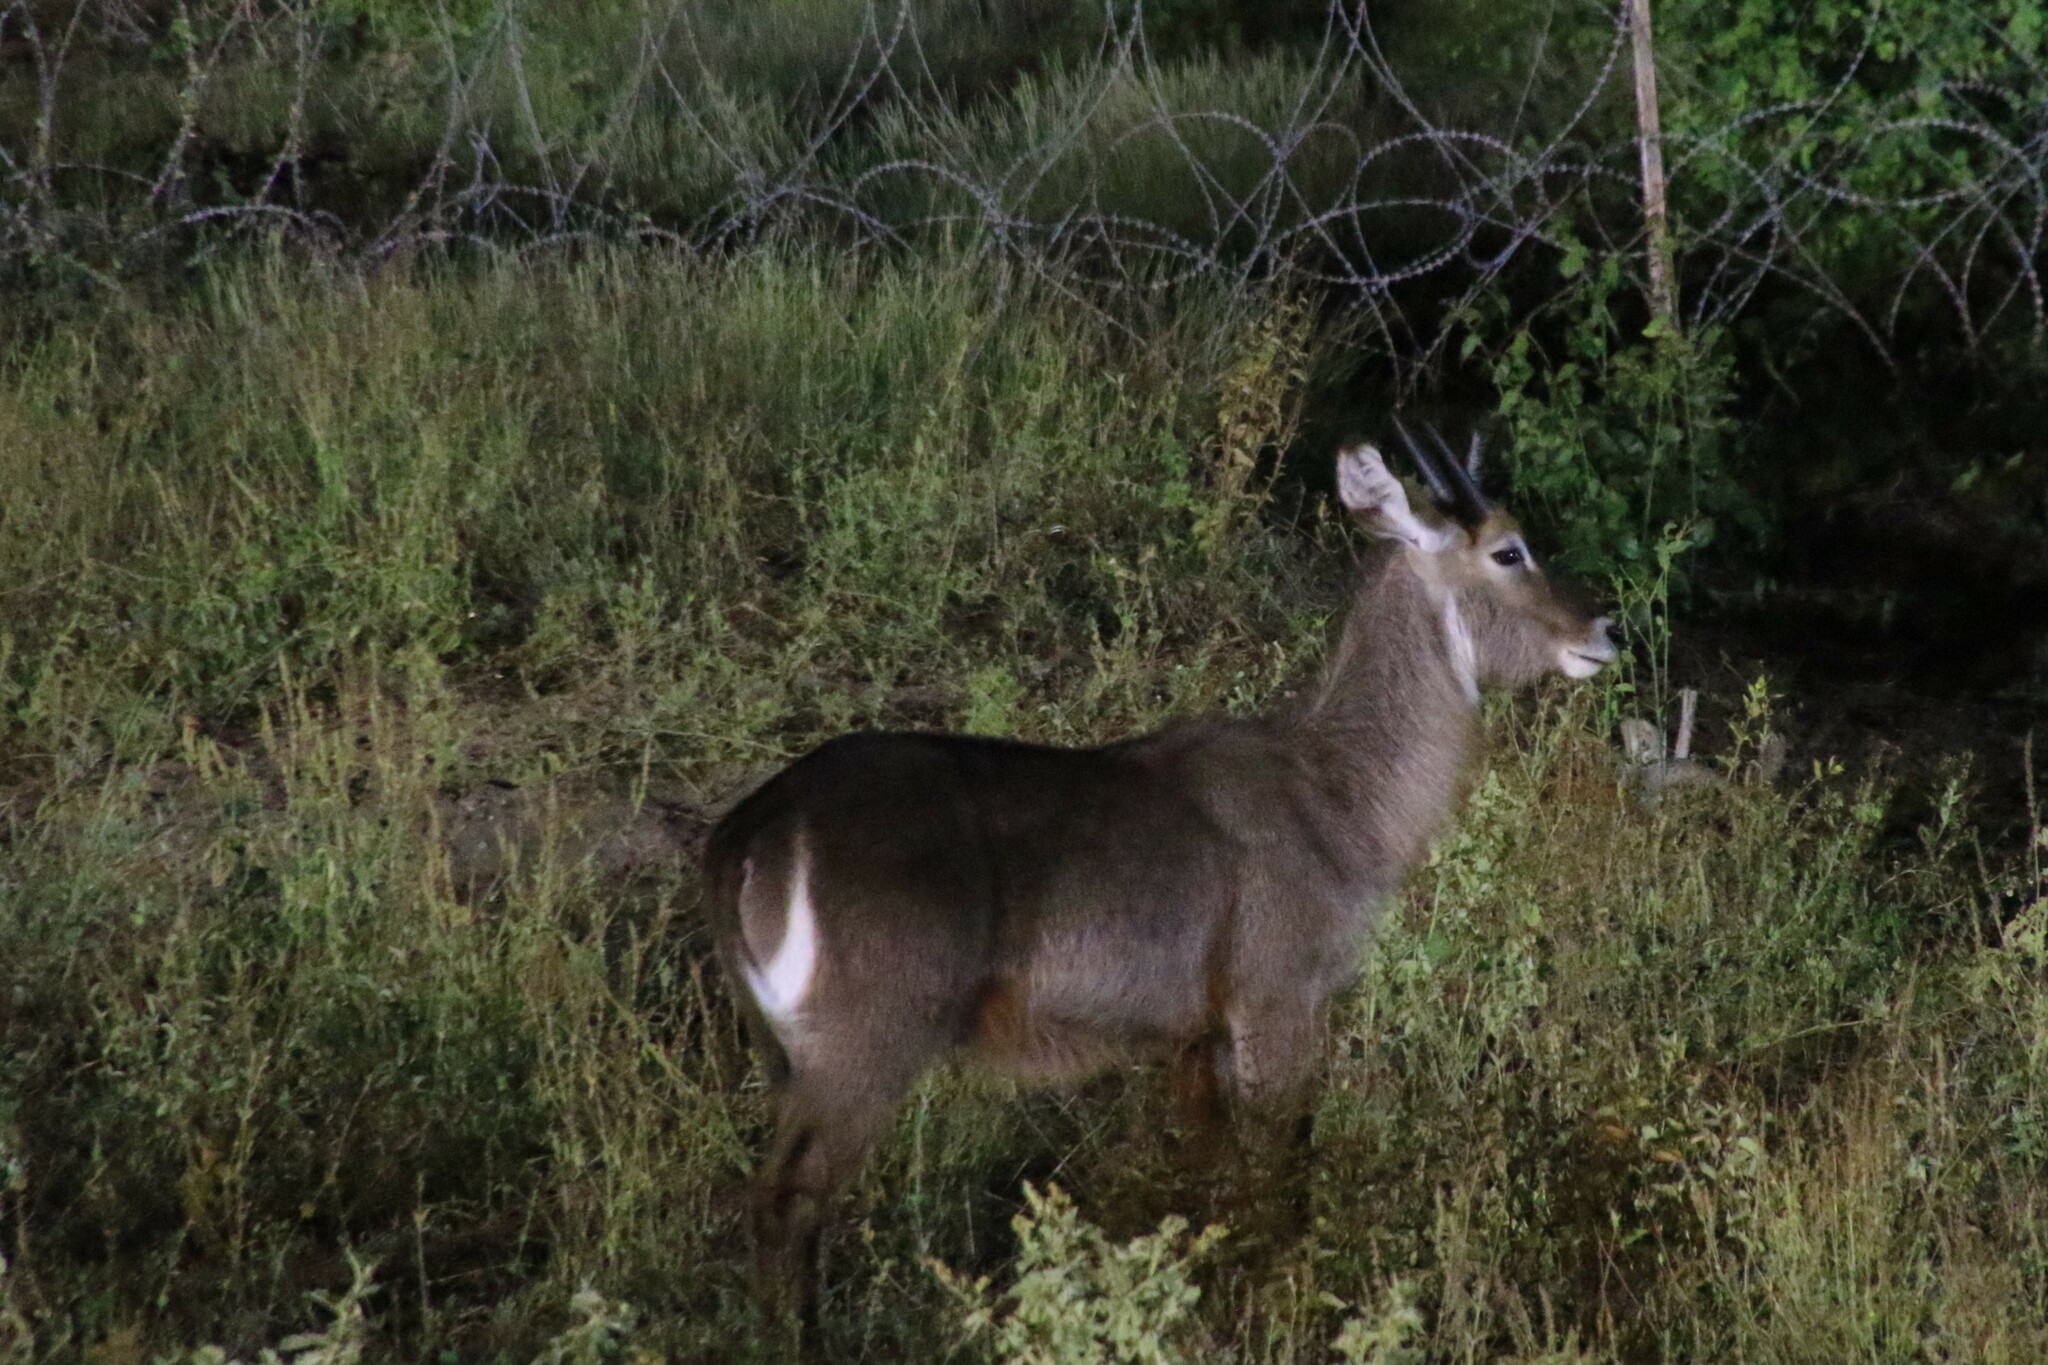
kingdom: Animalia
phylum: Chordata
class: Mammalia
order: Artiodactyla
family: Bovidae
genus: Kobus
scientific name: Kobus ellipsiprymnus
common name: Waterbuck
